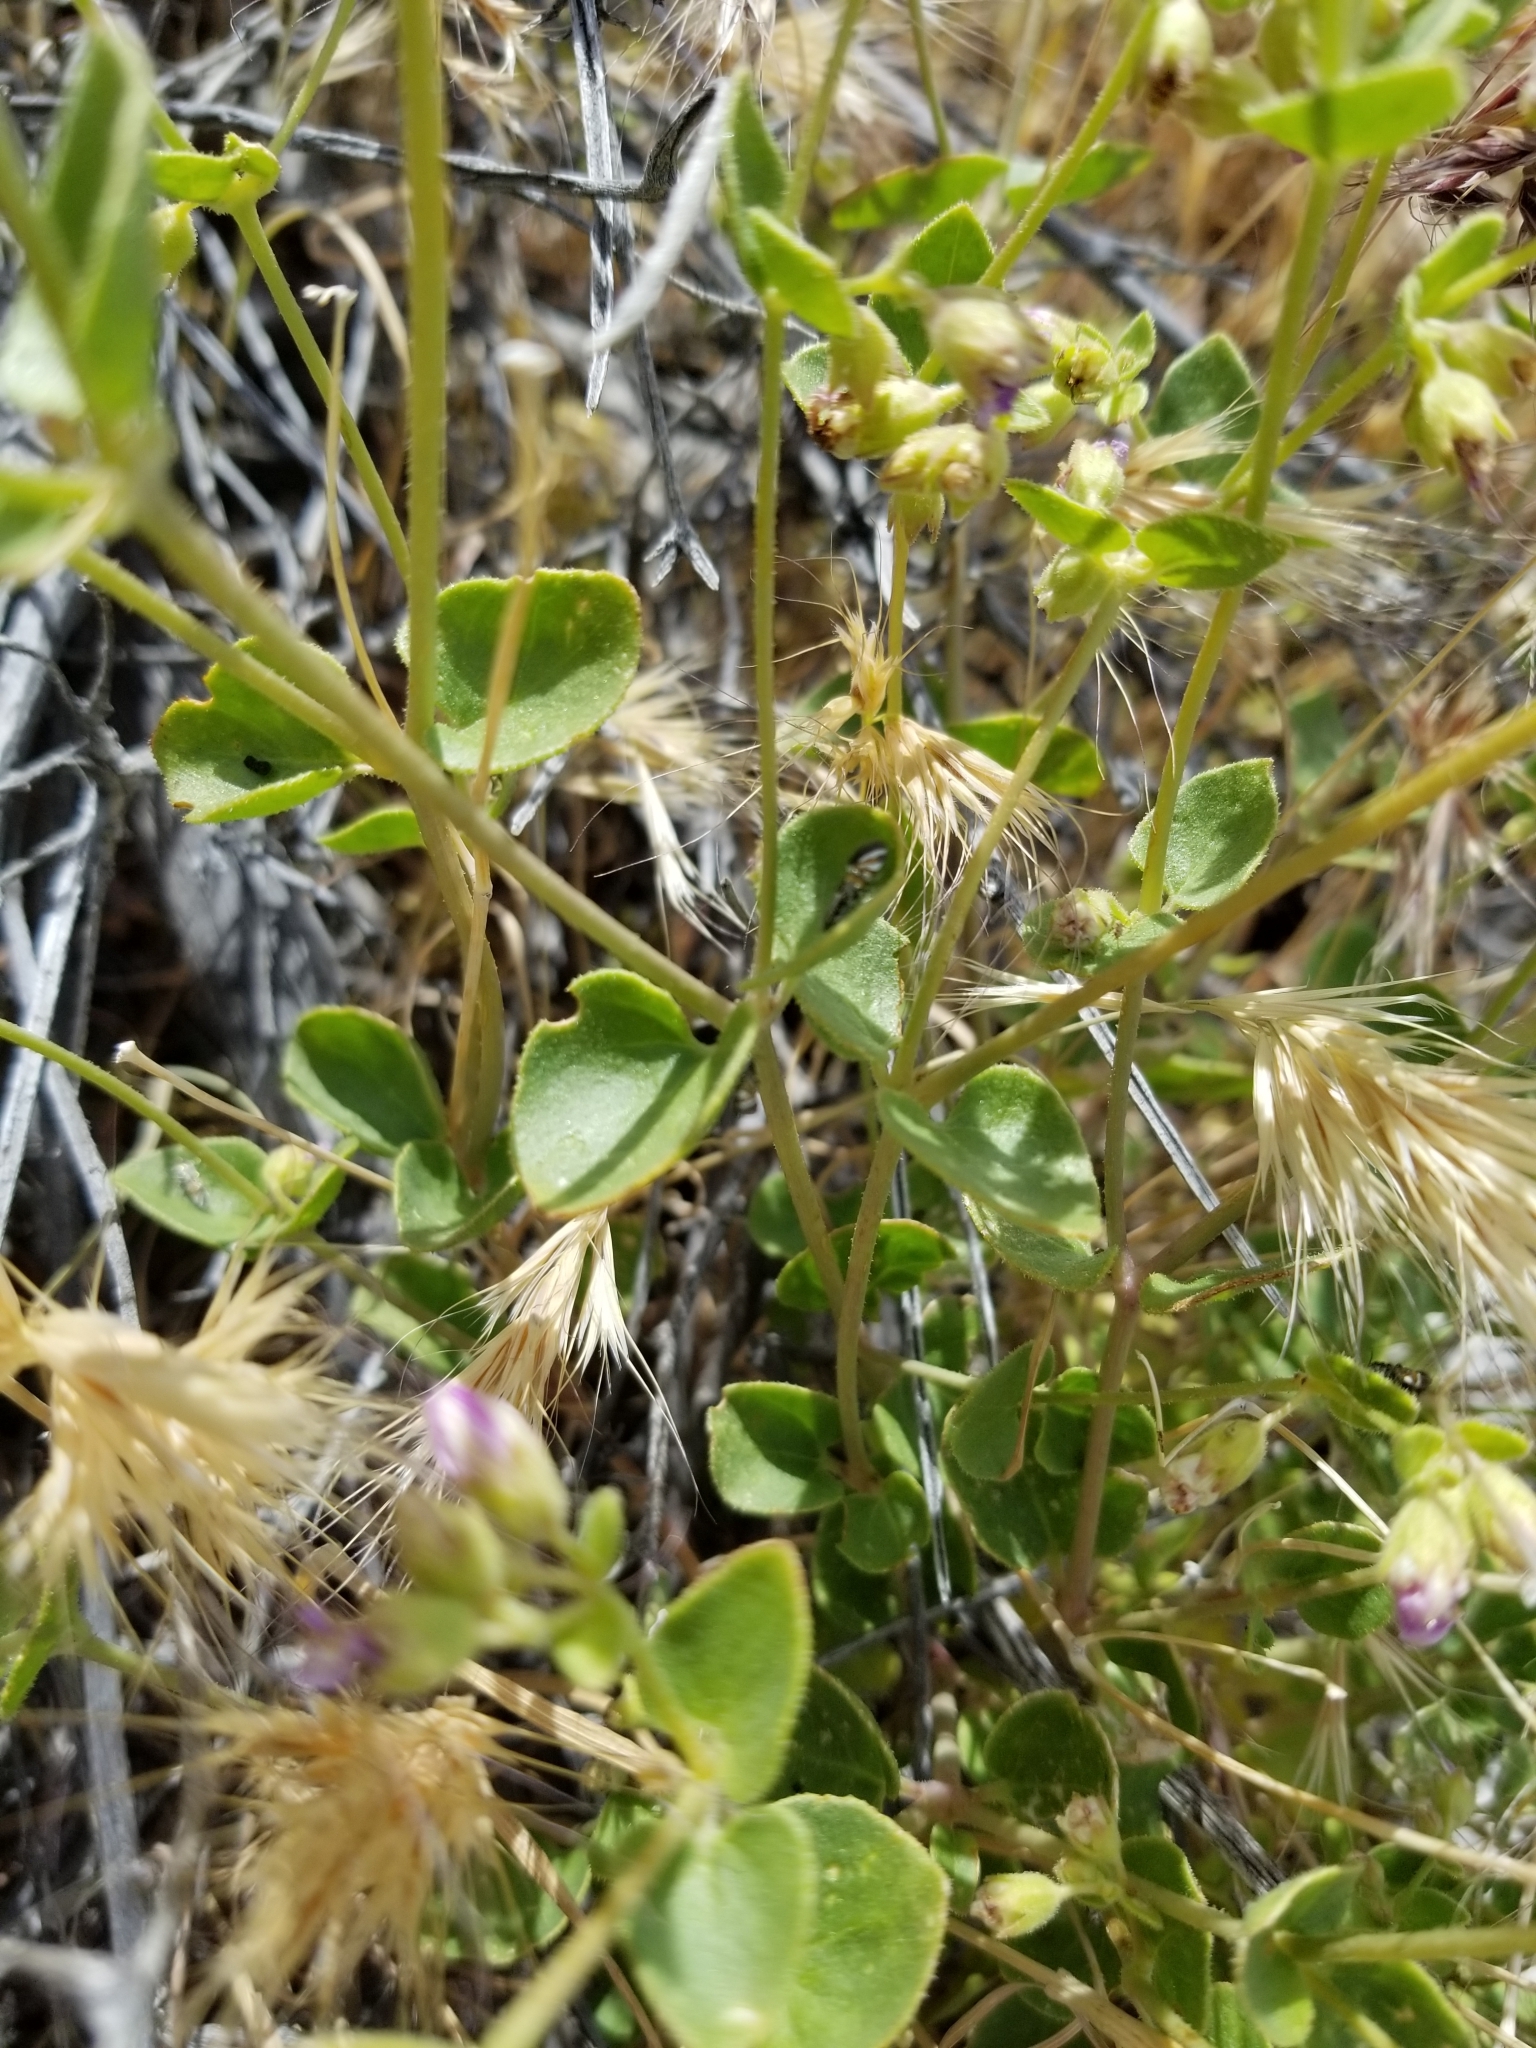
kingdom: Plantae
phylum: Tracheophyta
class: Magnoliopsida
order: Caryophyllales
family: Nyctaginaceae
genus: Mirabilis
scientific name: Mirabilis laevis
